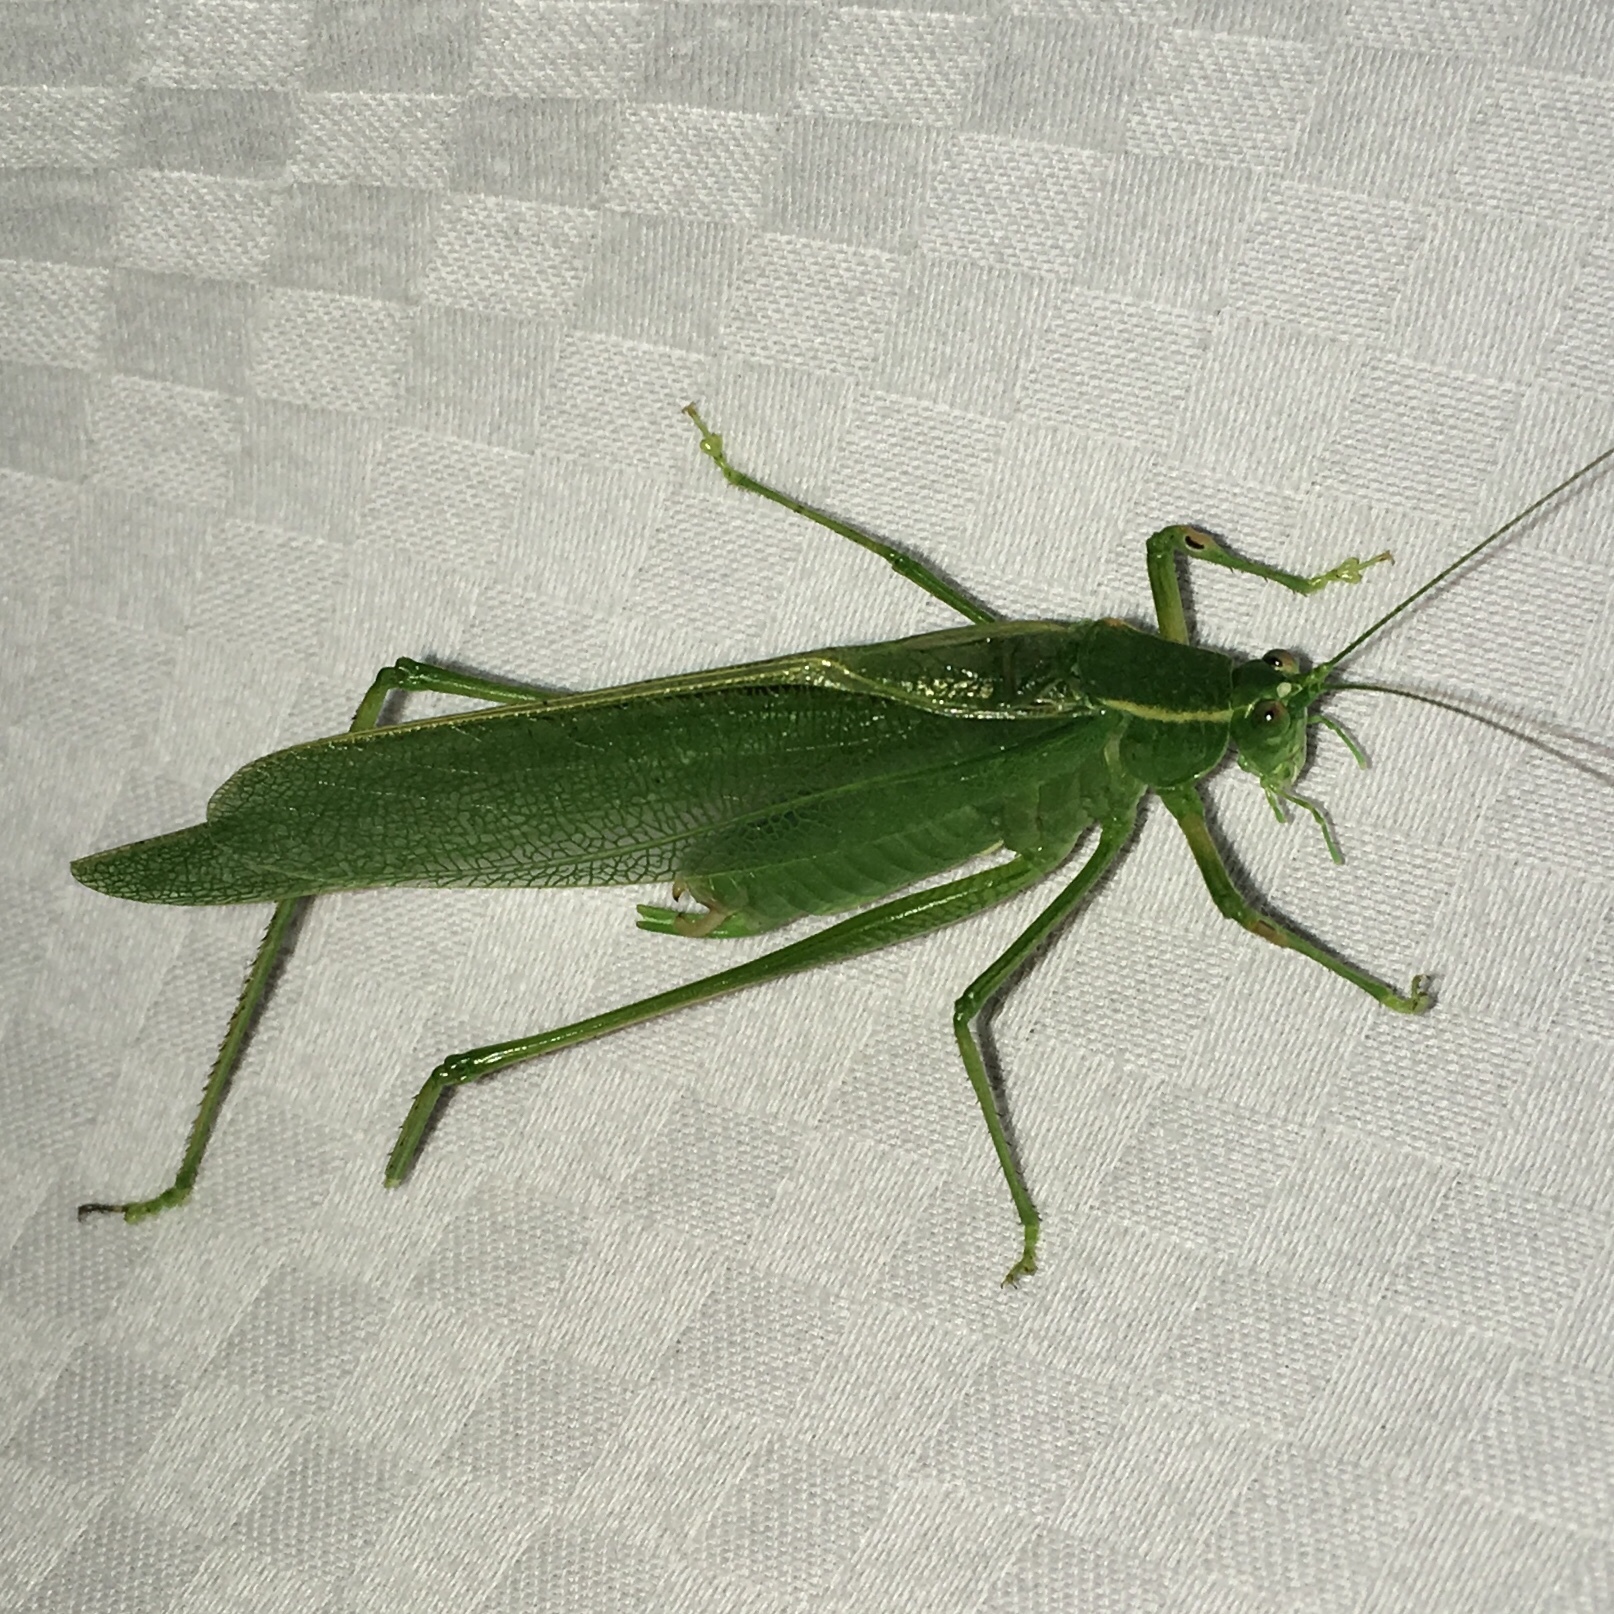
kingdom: Animalia
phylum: Arthropoda
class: Insecta
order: Orthoptera
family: Tettigoniidae
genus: Scudderia
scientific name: Scudderia septentrionalis
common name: Northern bush-katydid
